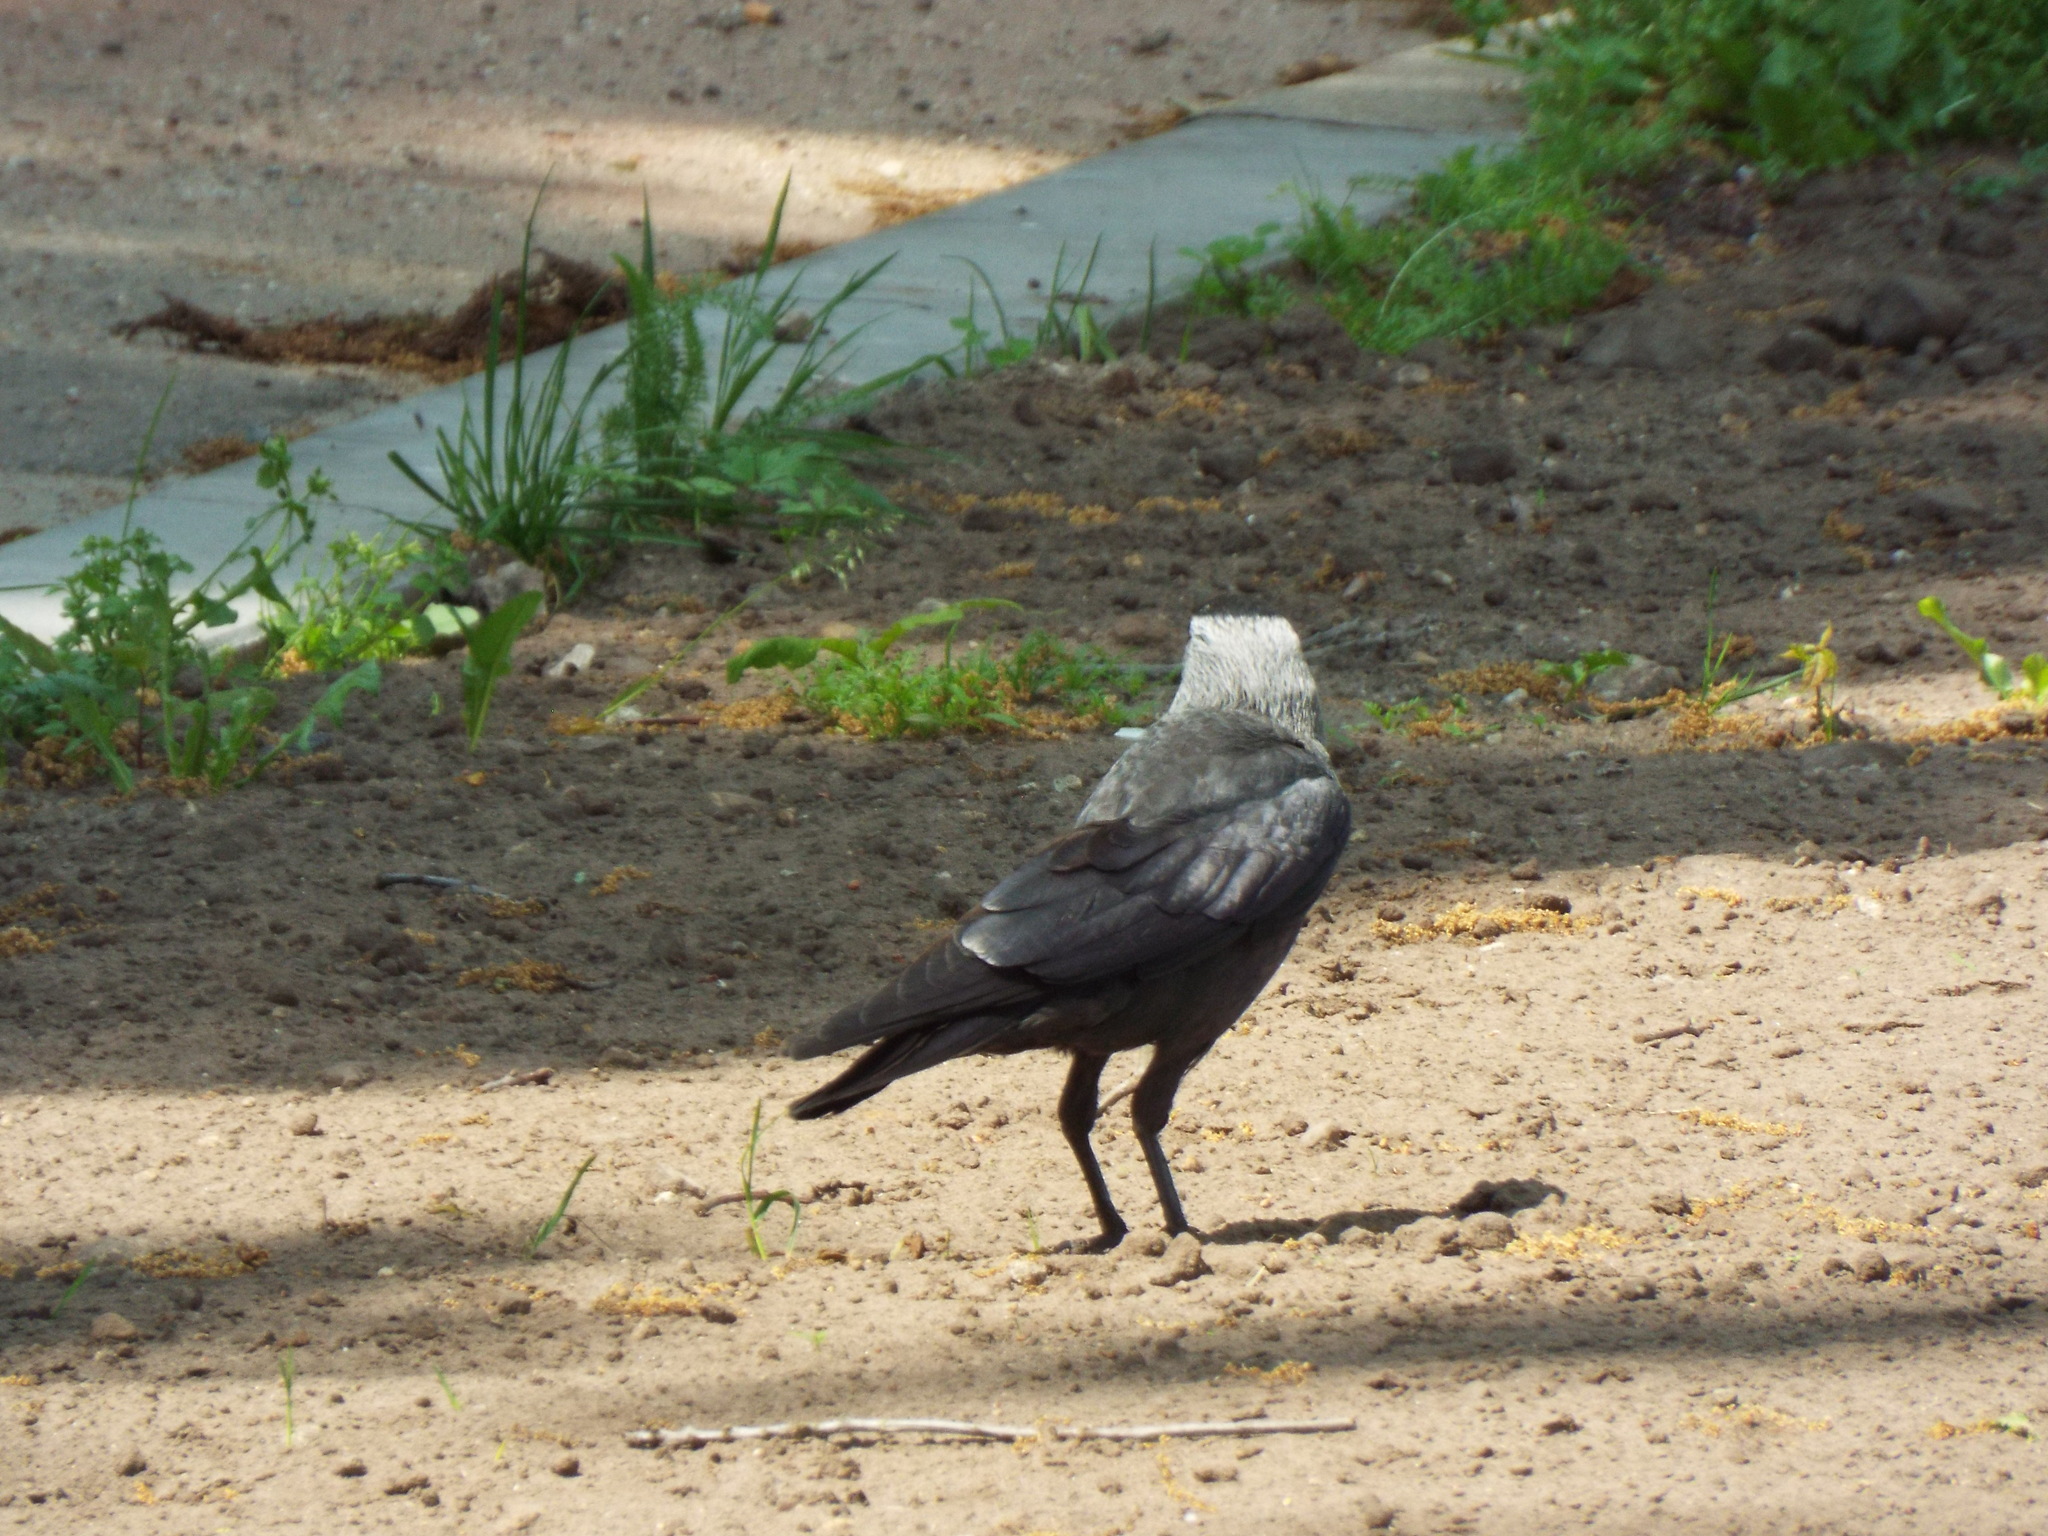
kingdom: Animalia
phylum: Chordata
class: Aves
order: Passeriformes
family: Corvidae
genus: Coloeus
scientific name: Coloeus monedula
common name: Western jackdaw
